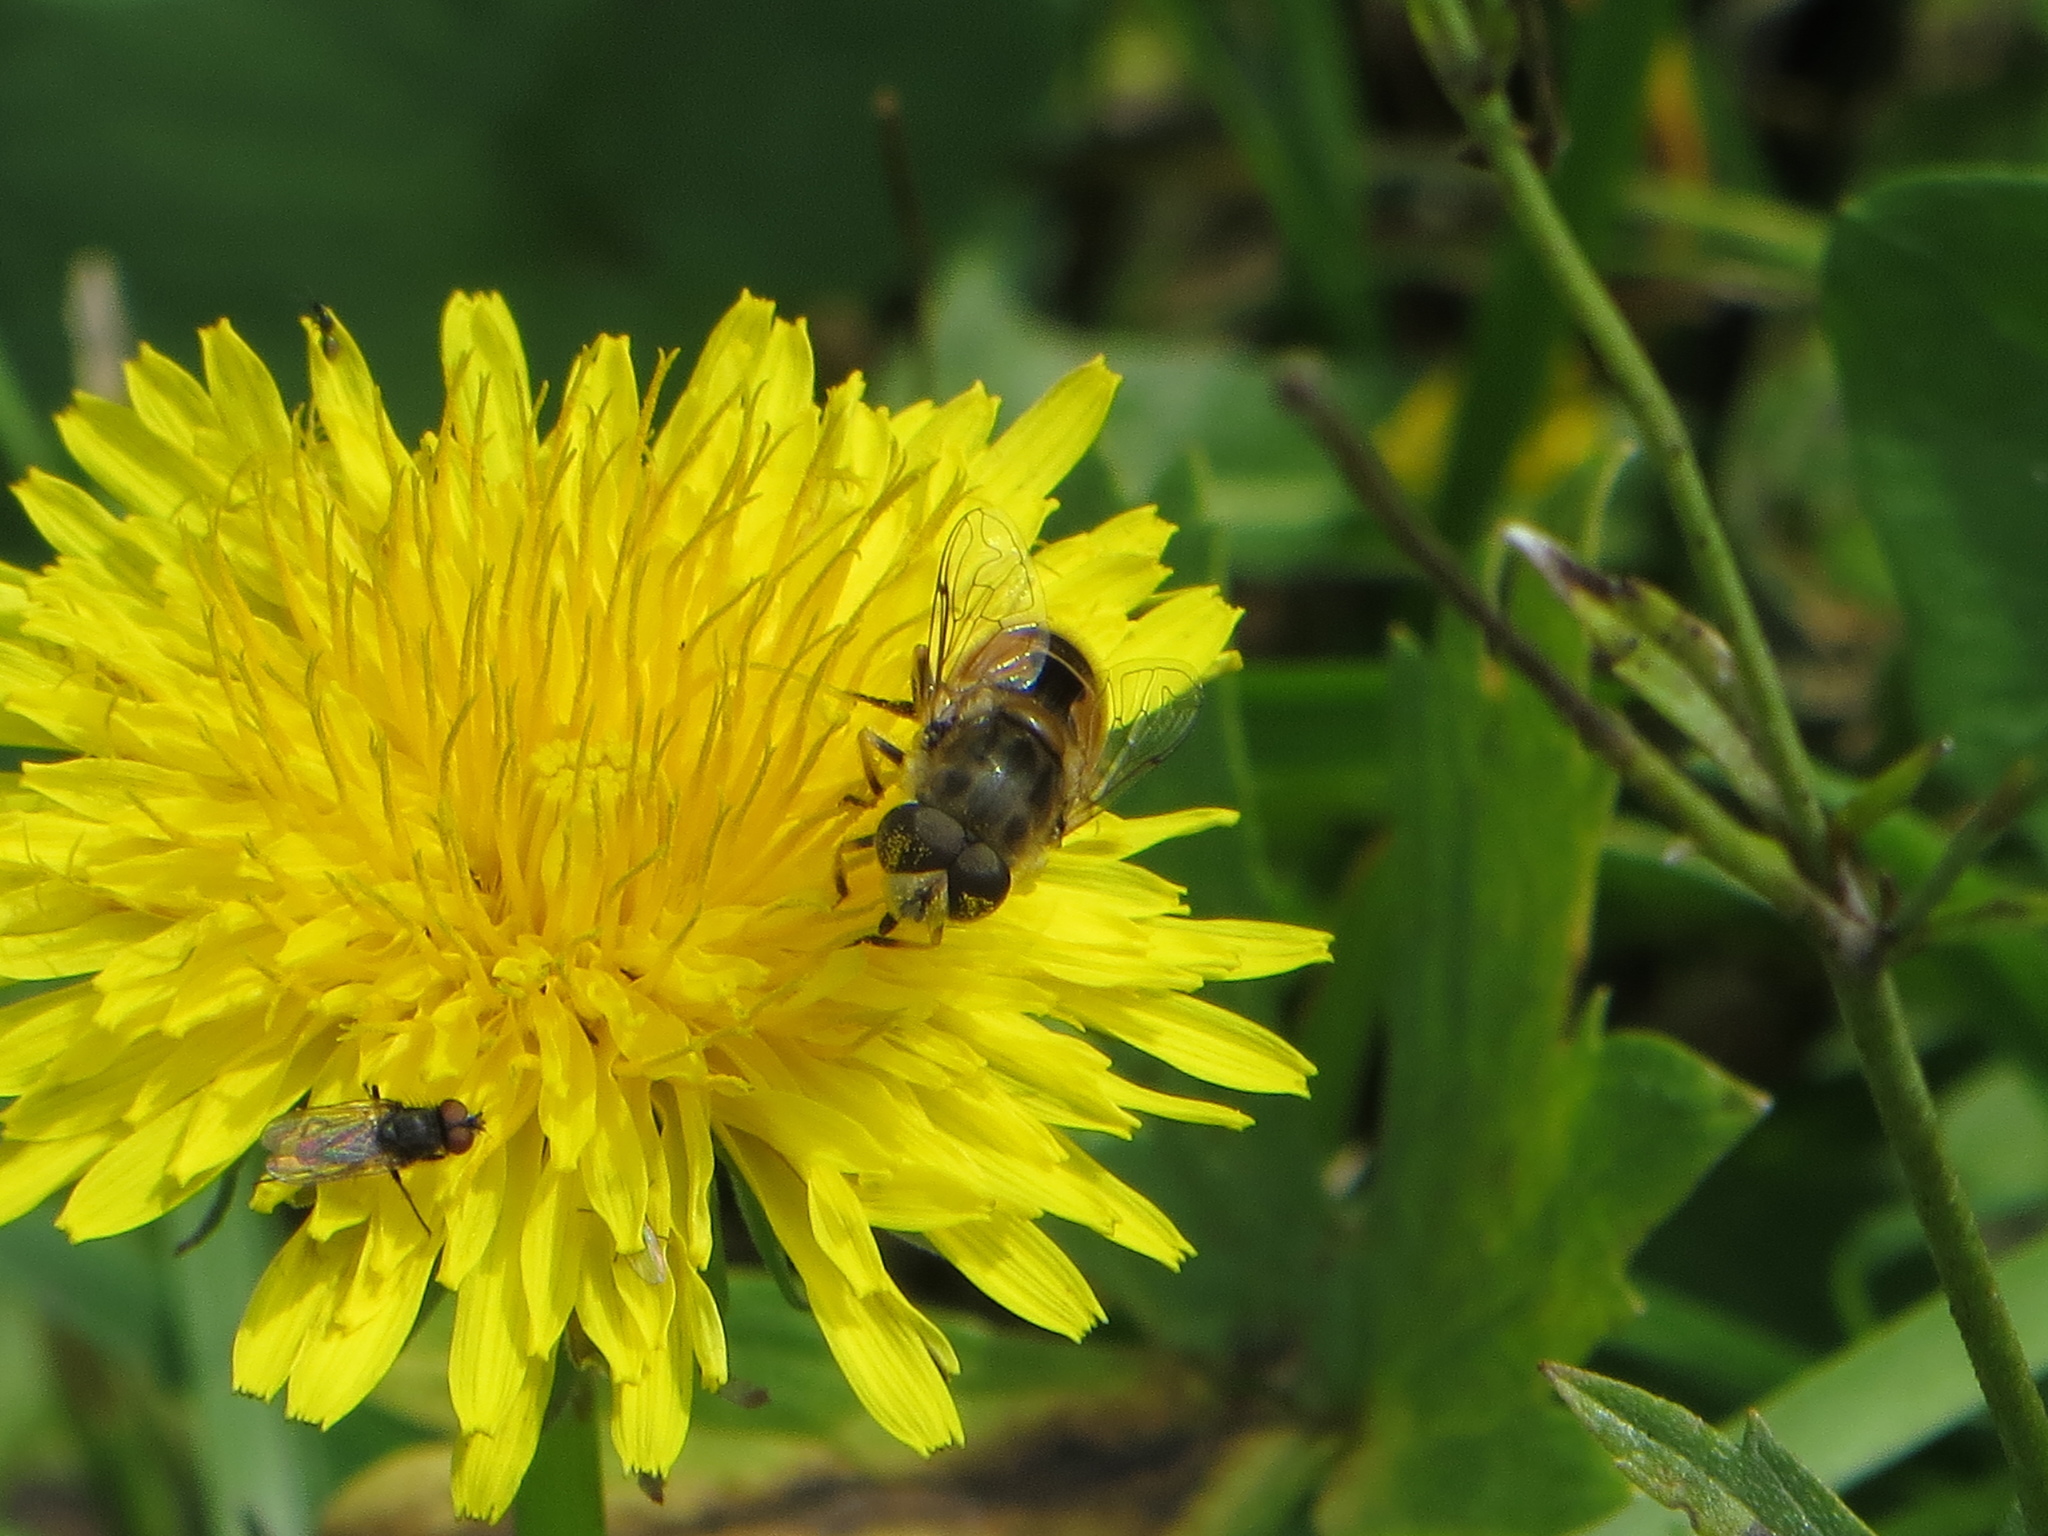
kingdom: Animalia
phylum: Arthropoda
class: Insecta
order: Diptera
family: Syrphidae
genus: Eristalis
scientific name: Eristalis arbustorum
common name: Hover fly
